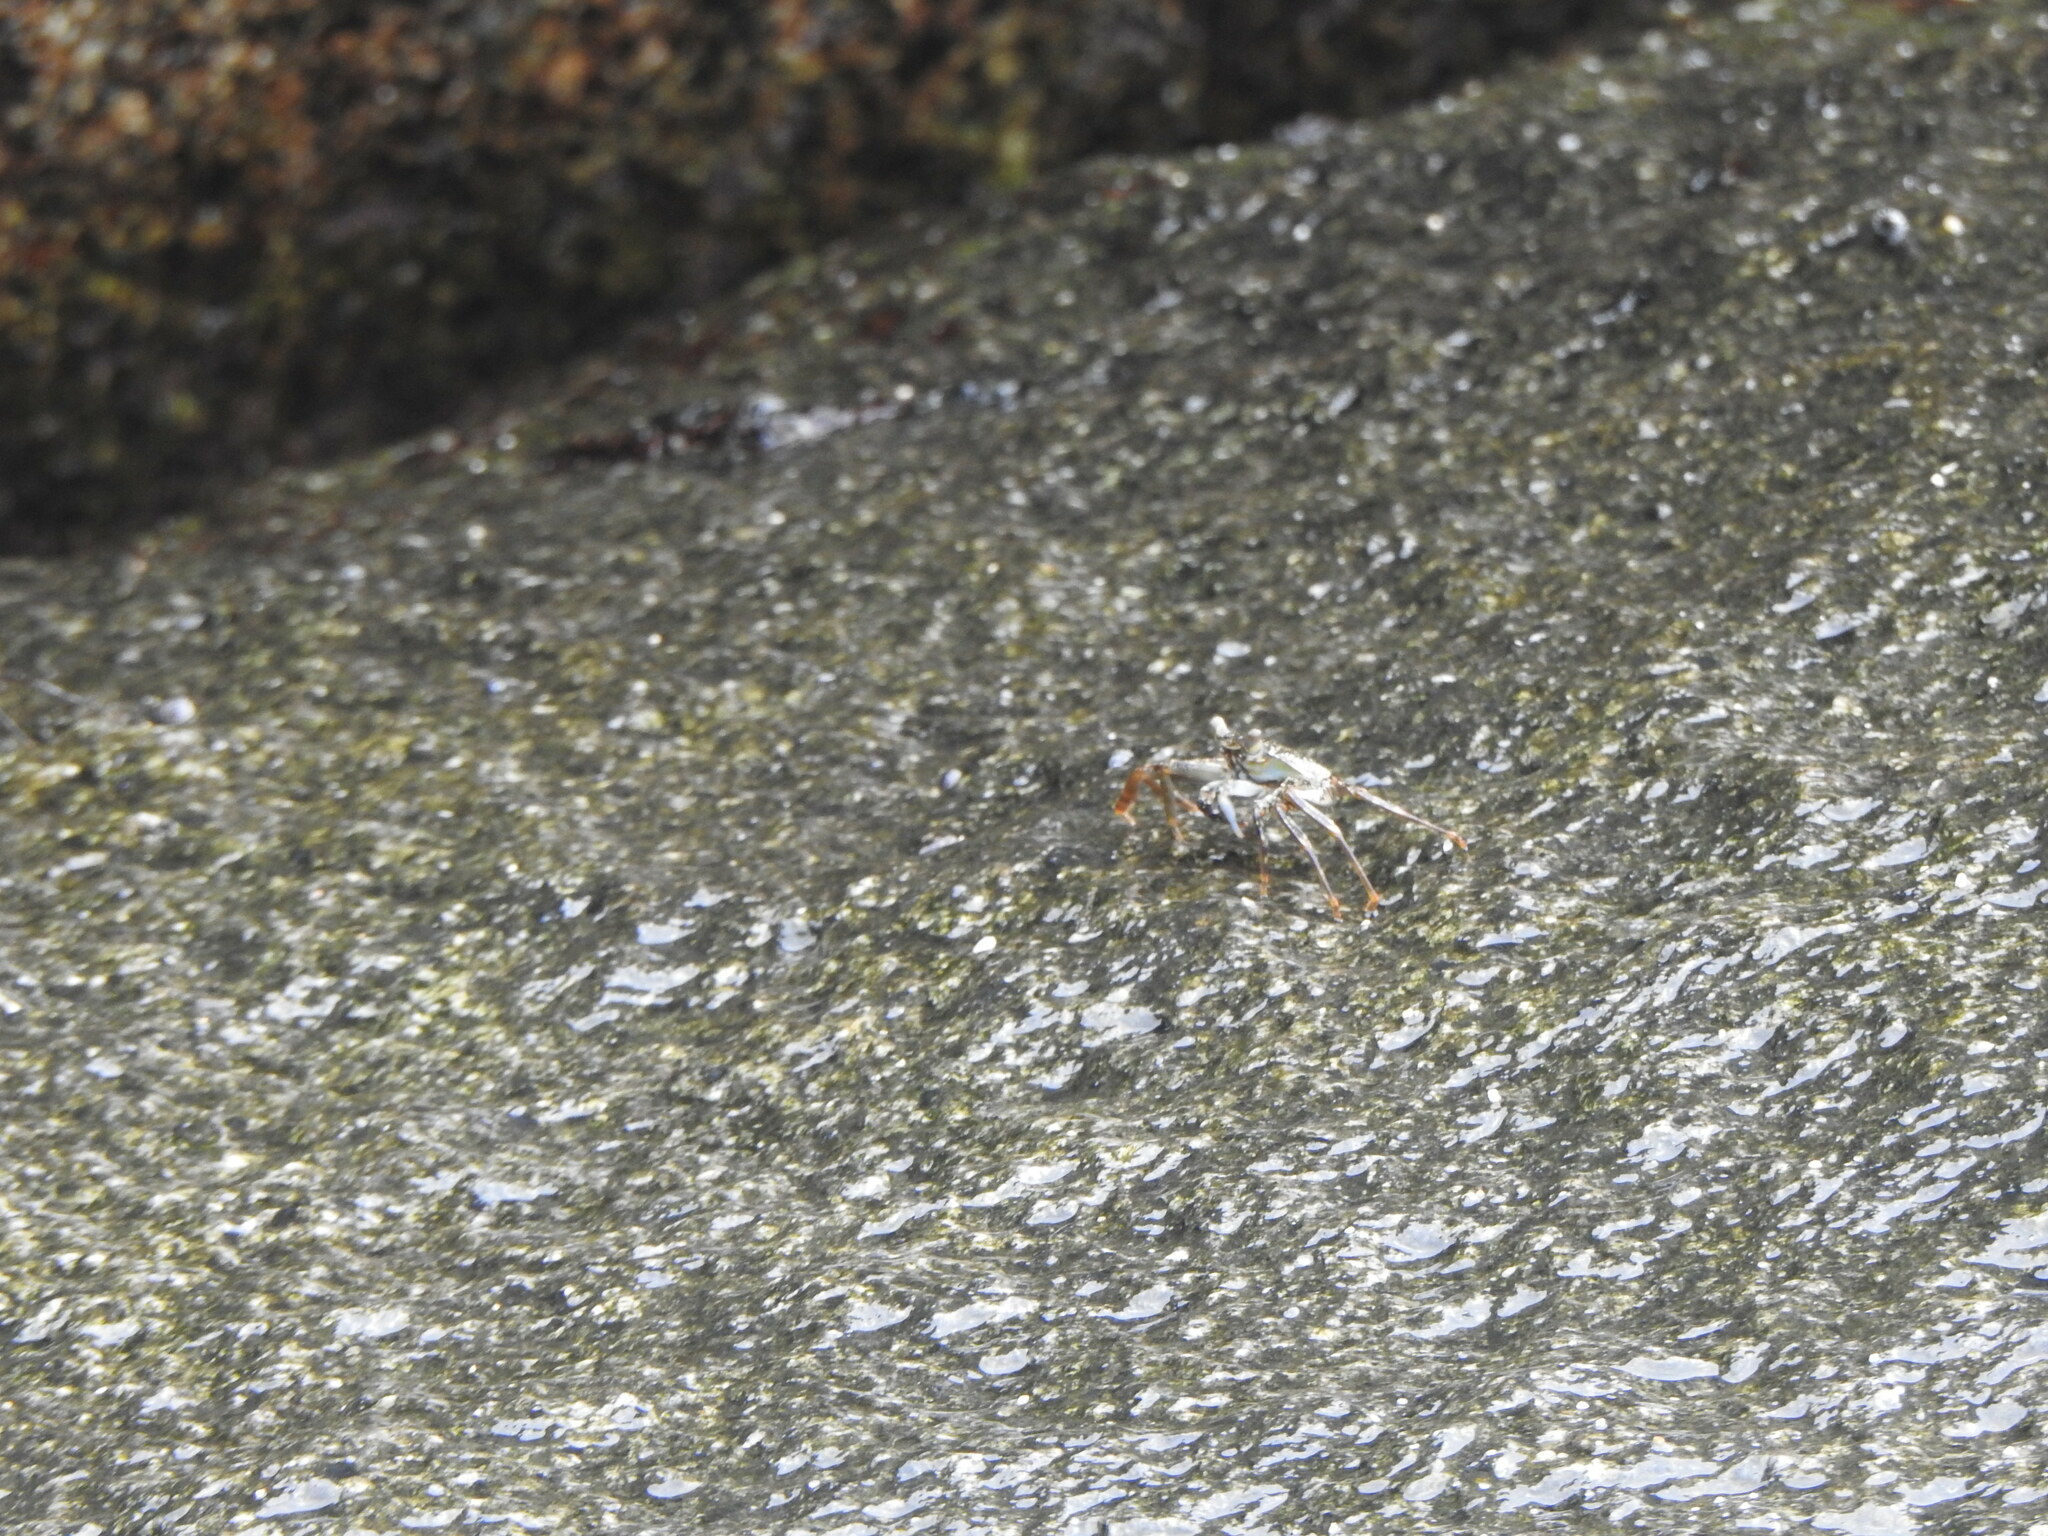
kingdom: Animalia
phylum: Arthropoda
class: Malacostraca
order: Decapoda
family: Grapsidae
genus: Grapsus
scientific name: Grapsus grapsus
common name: Sally lightfoot
